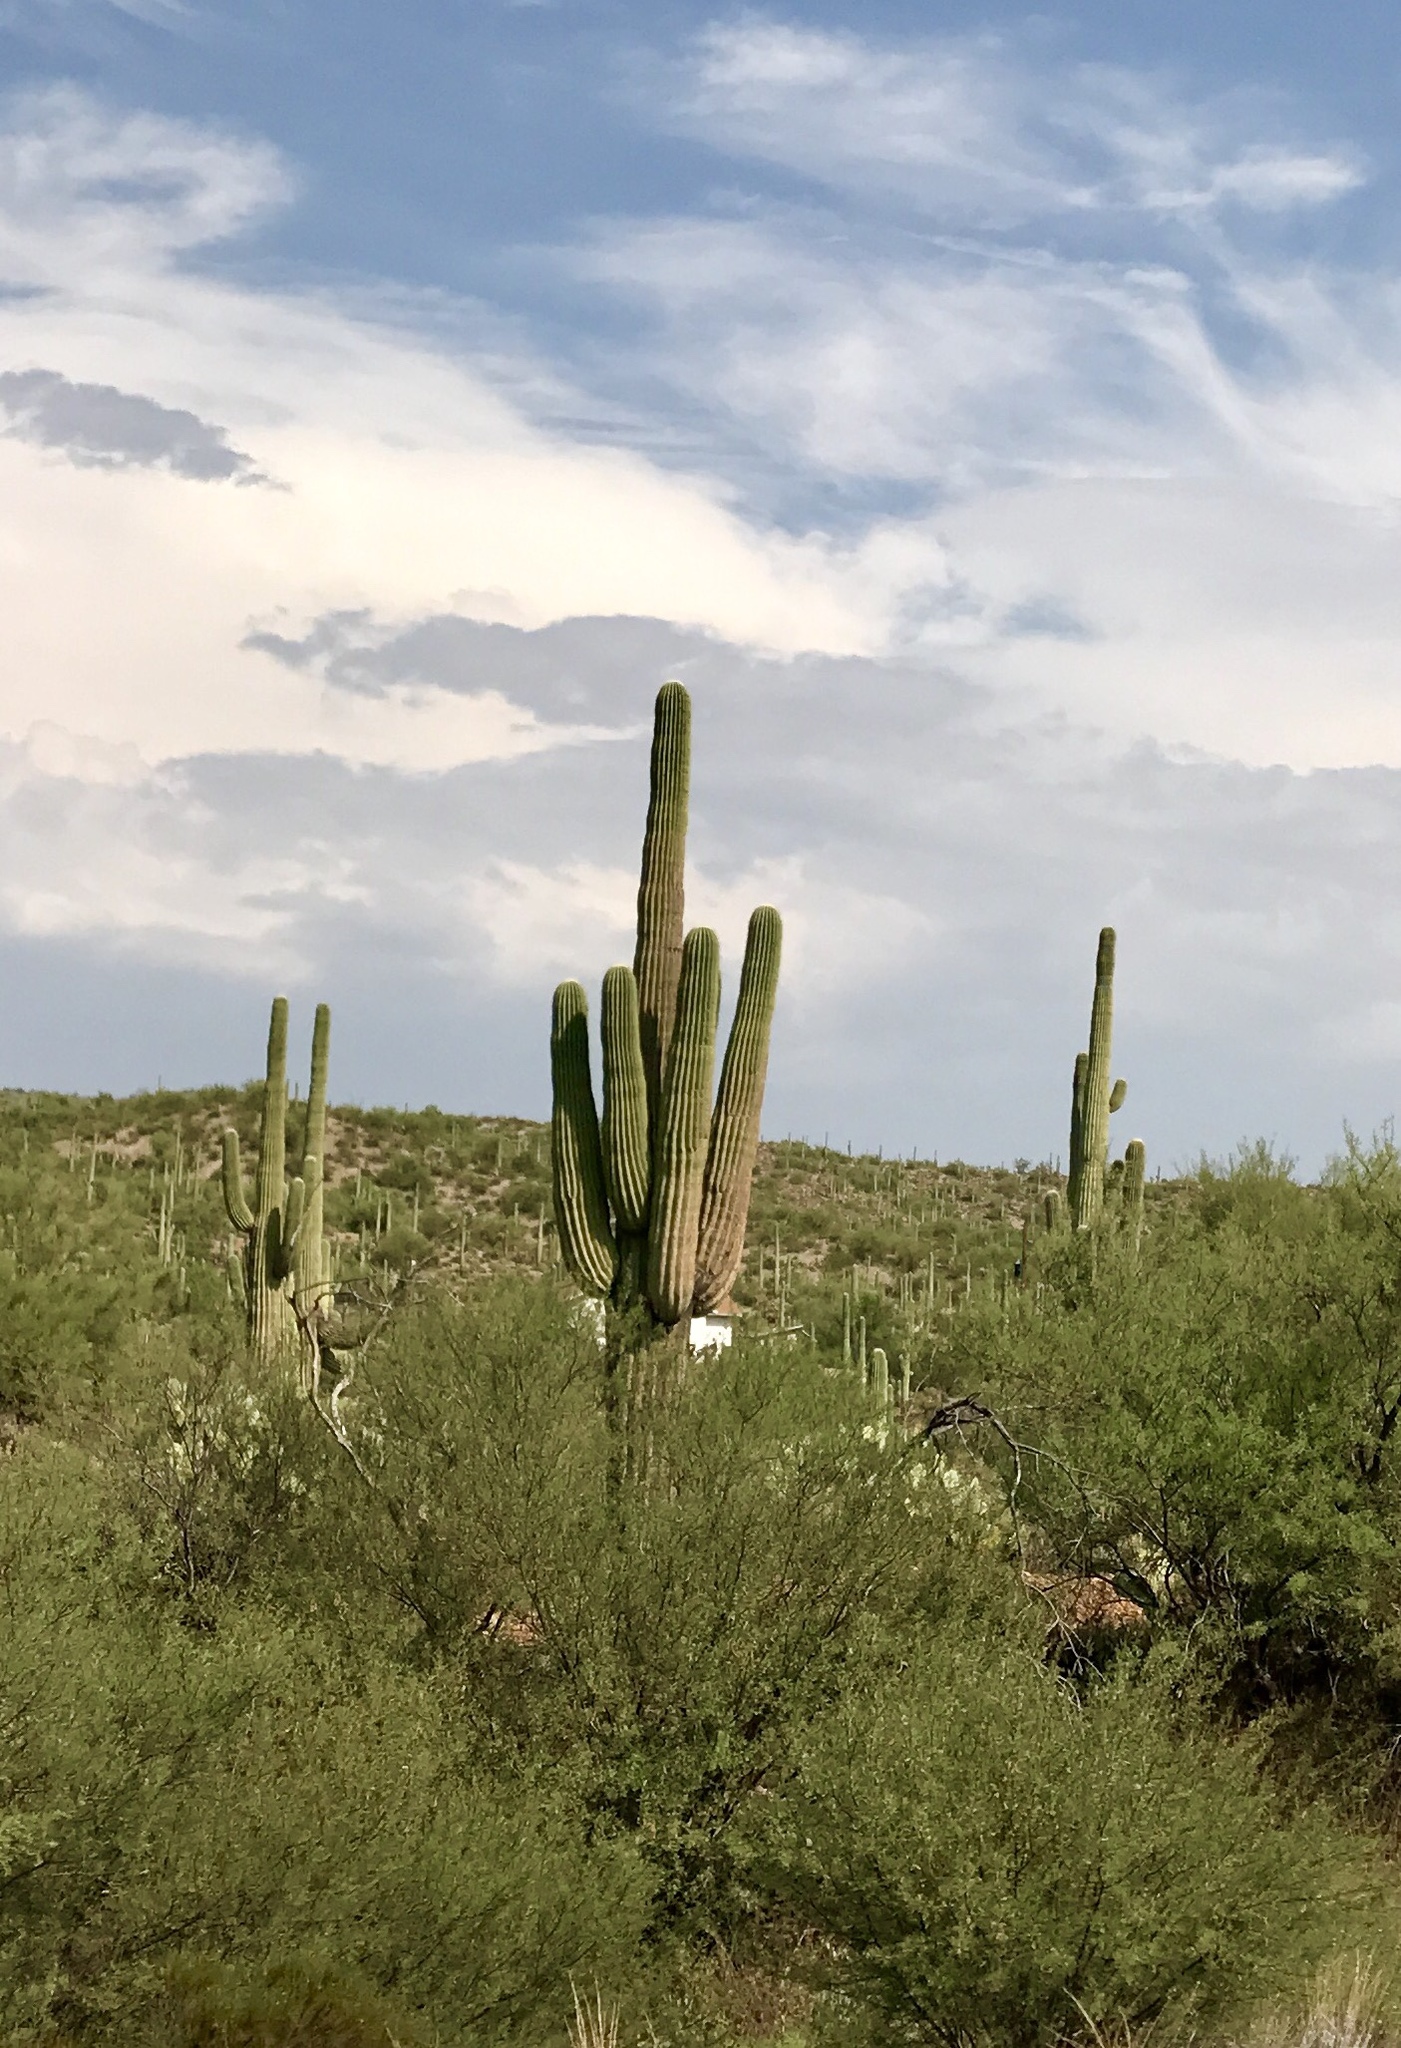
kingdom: Plantae
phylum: Tracheophyta
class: Magnoliopsida
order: Caryophyllales
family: Cactaceae
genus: Carnegiea
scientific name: Carnegiea gigantea
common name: Saguaro
